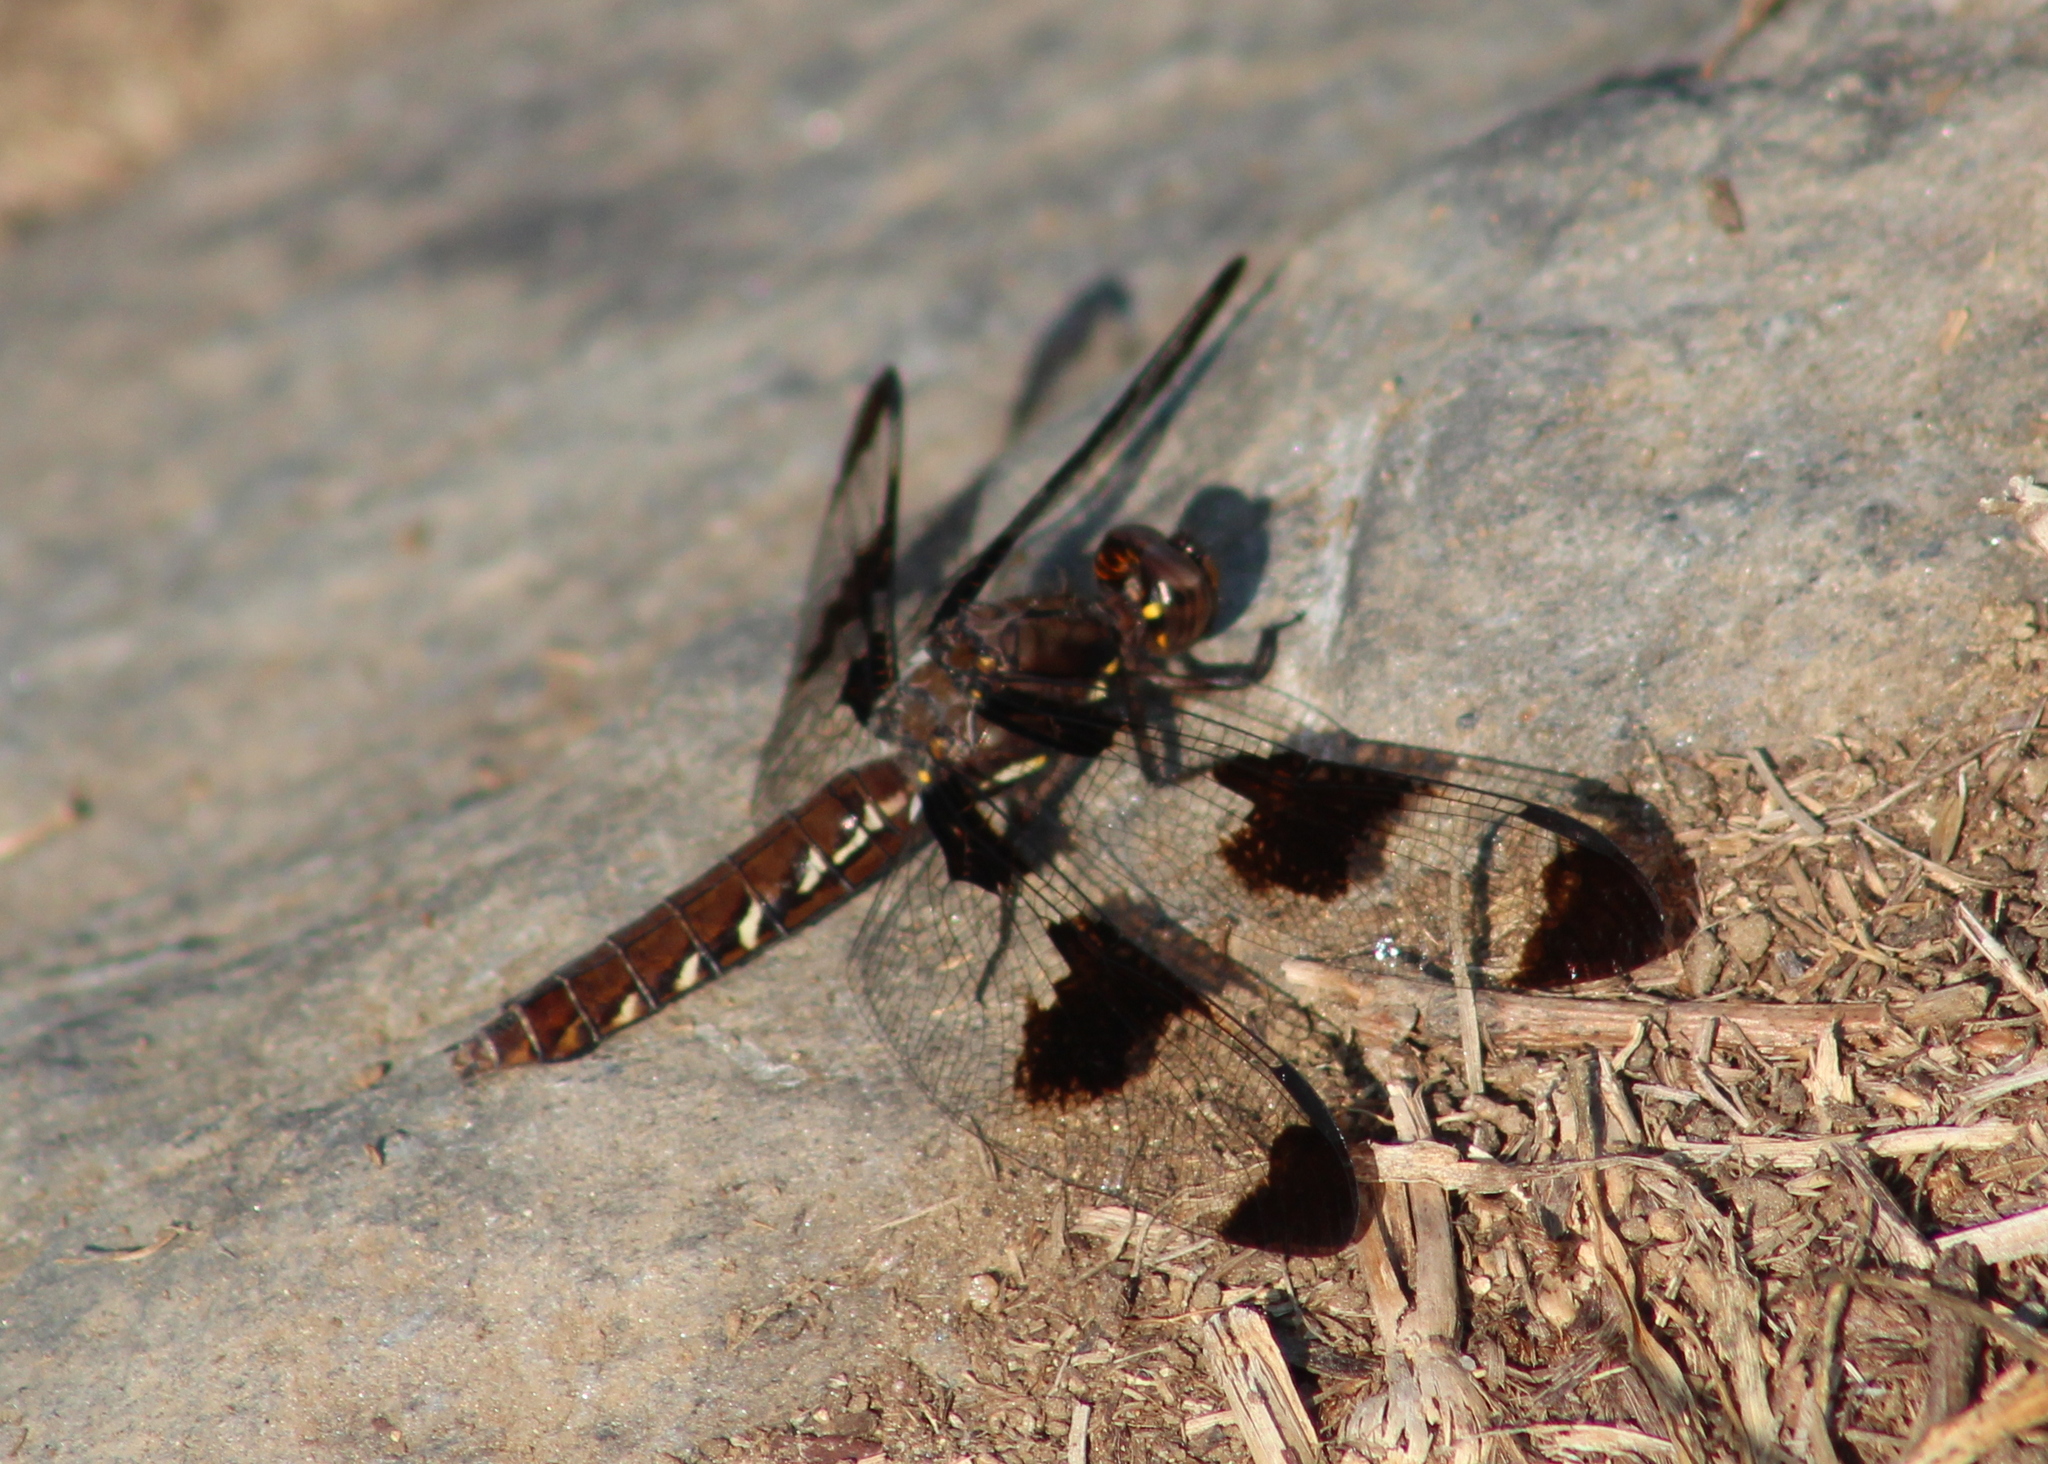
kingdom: Animalia
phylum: Arthropoda
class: Insecta
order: Odonata
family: Libellulidae
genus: Plathemis
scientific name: Plathemis lydia
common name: Common whitetail
